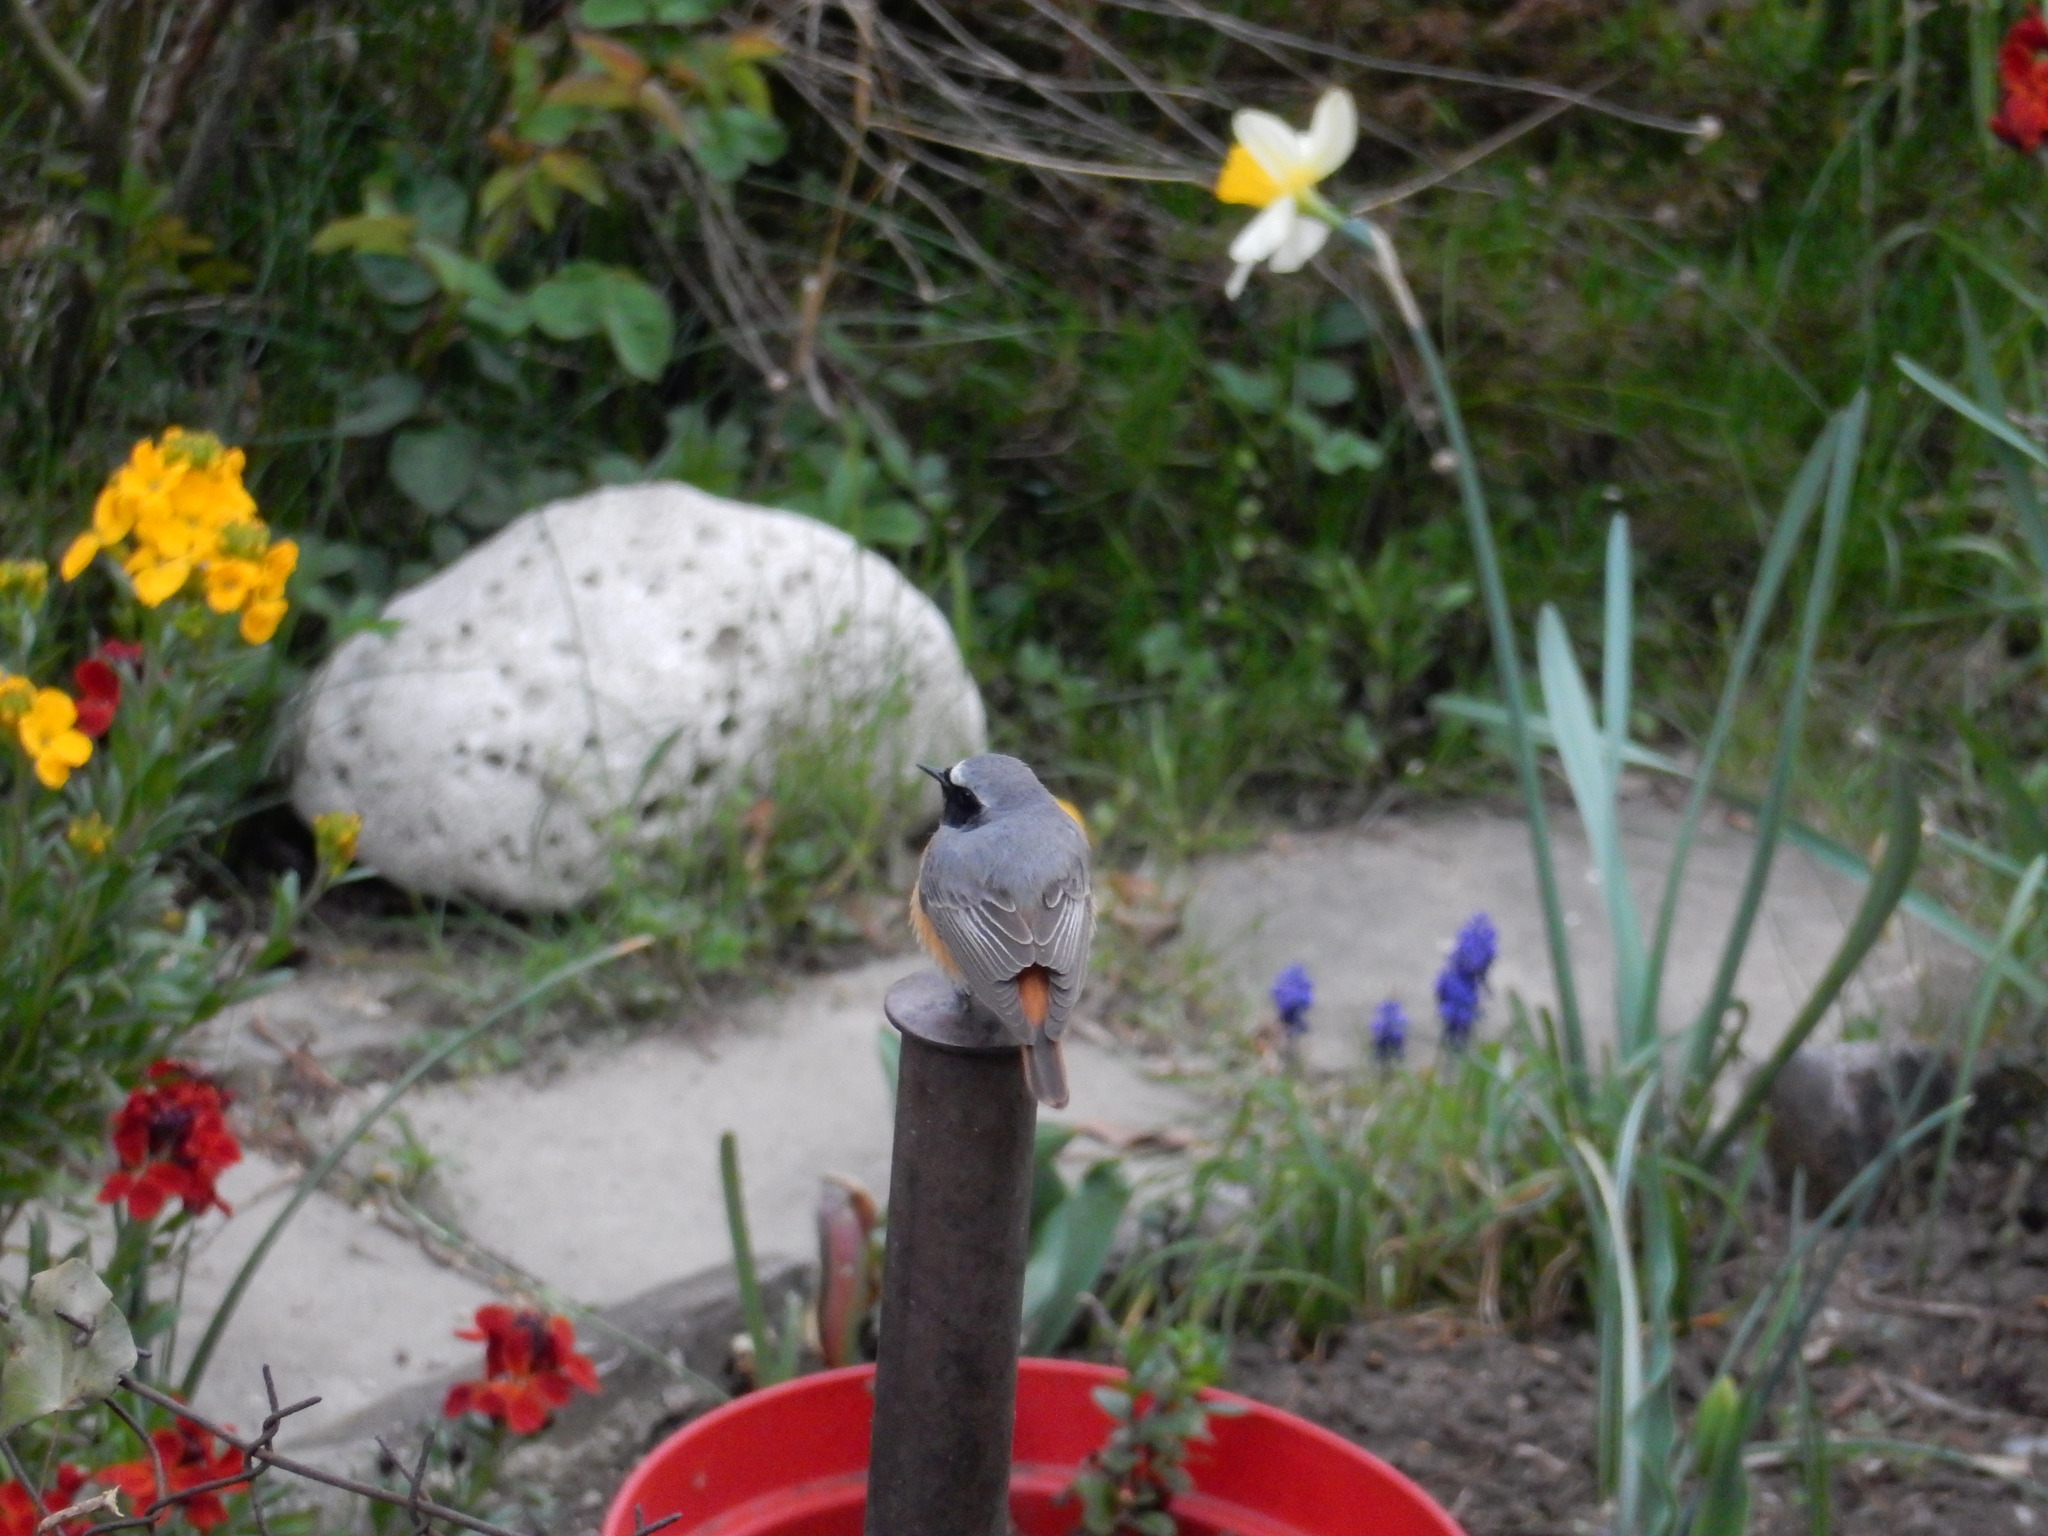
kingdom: Animalia
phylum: Chordata
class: Aves
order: Passeriformes
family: Muscicapidae
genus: Phoenicurus
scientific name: Phoenicurus phoenicurus
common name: Common redstart
